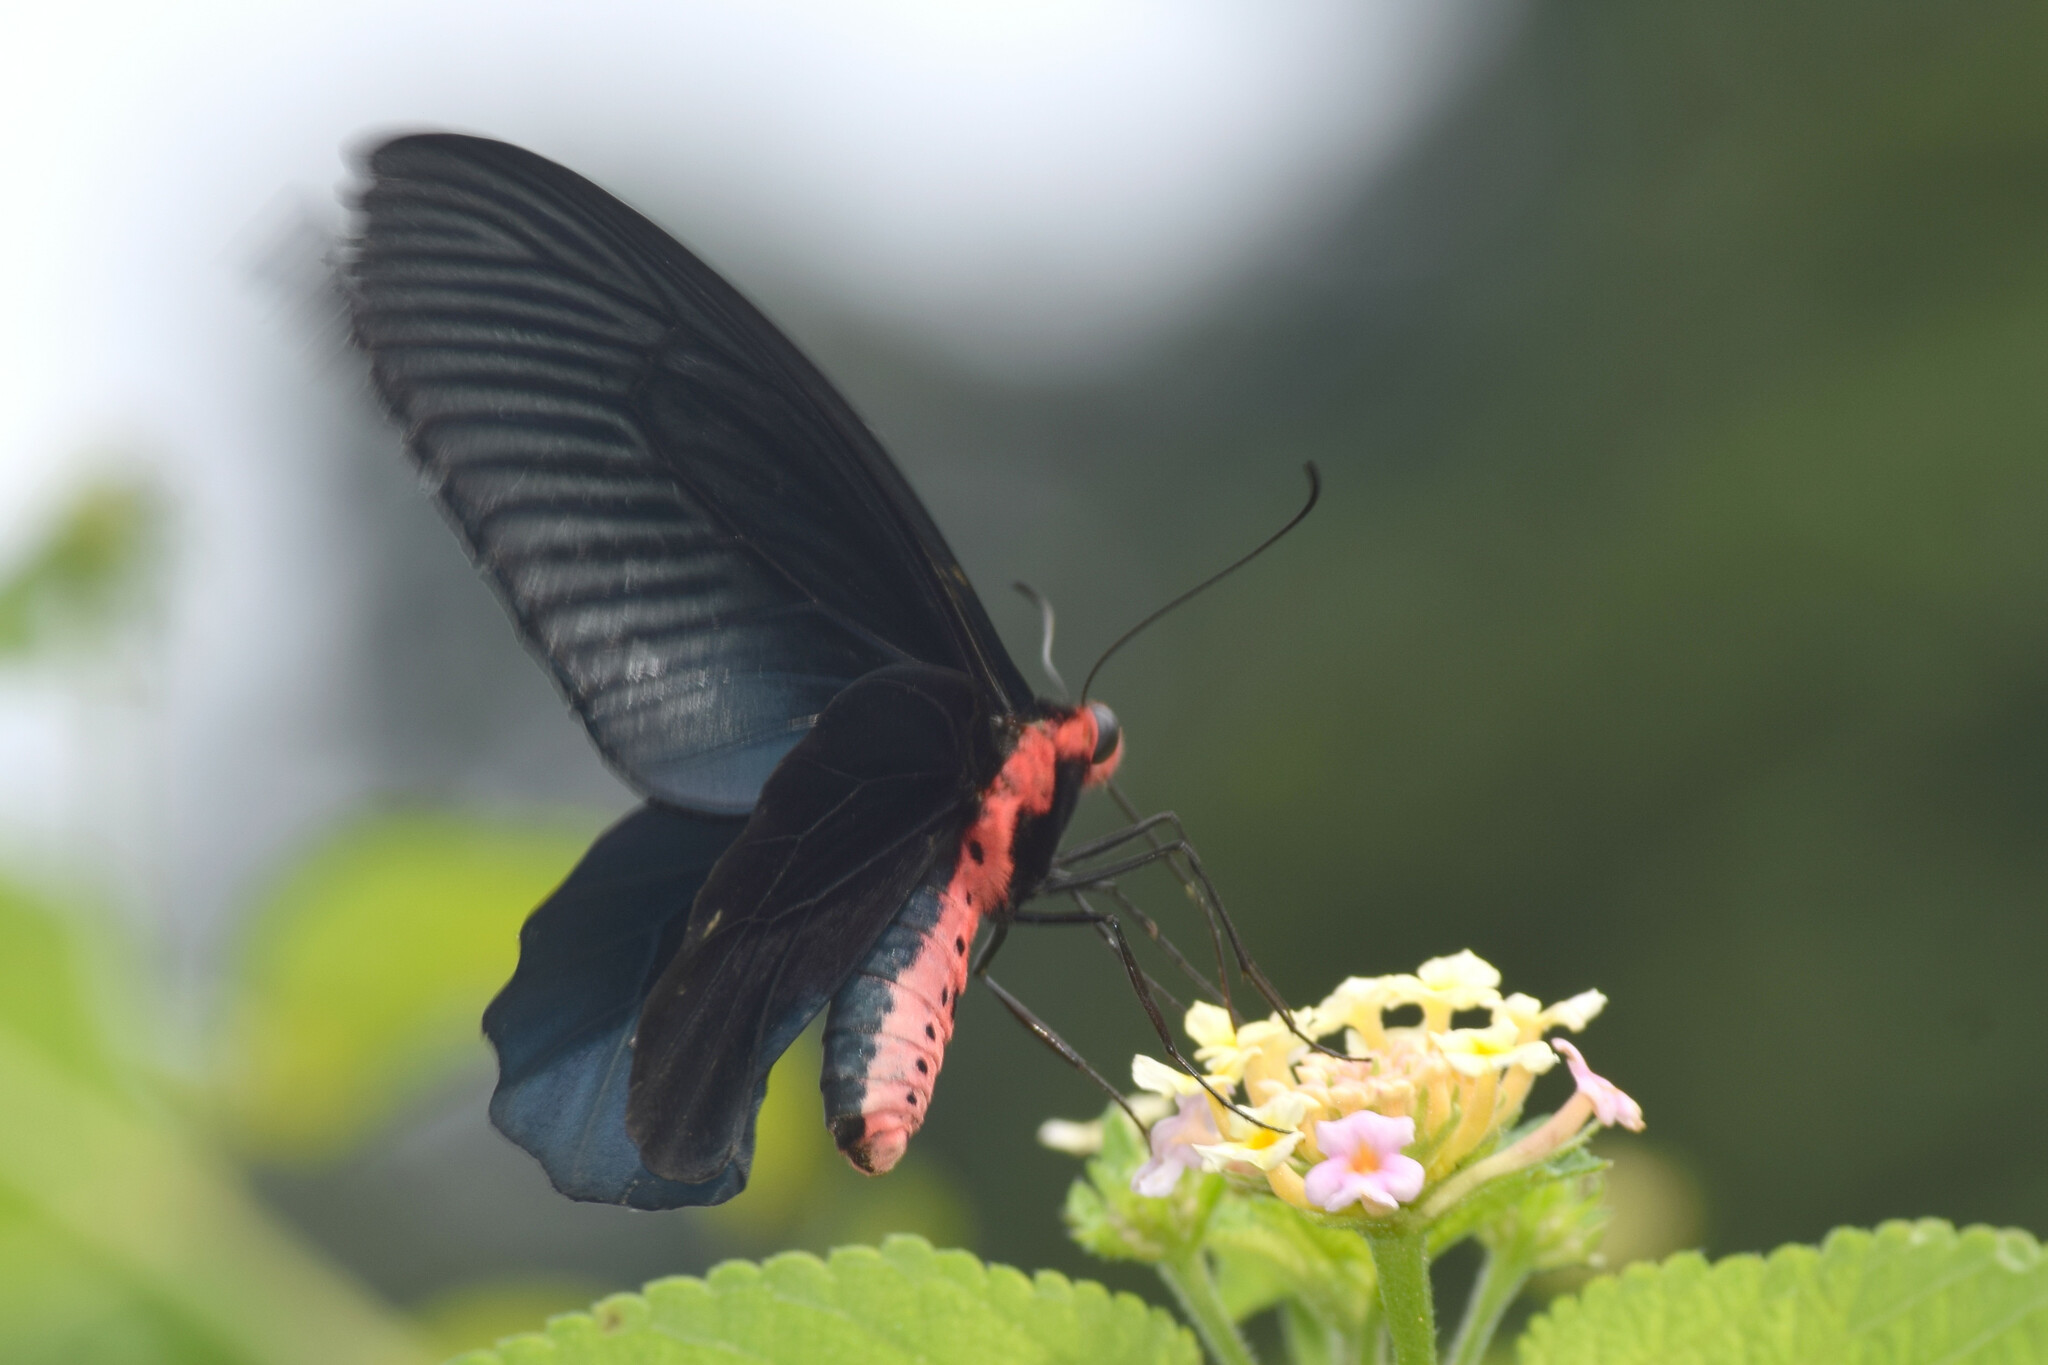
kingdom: Animalia
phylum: Arthropoda
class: Insecta
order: Lepidoptera
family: Papilionidae
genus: Atrophaneura
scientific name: Atrophaneura varuna
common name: Common batwing
